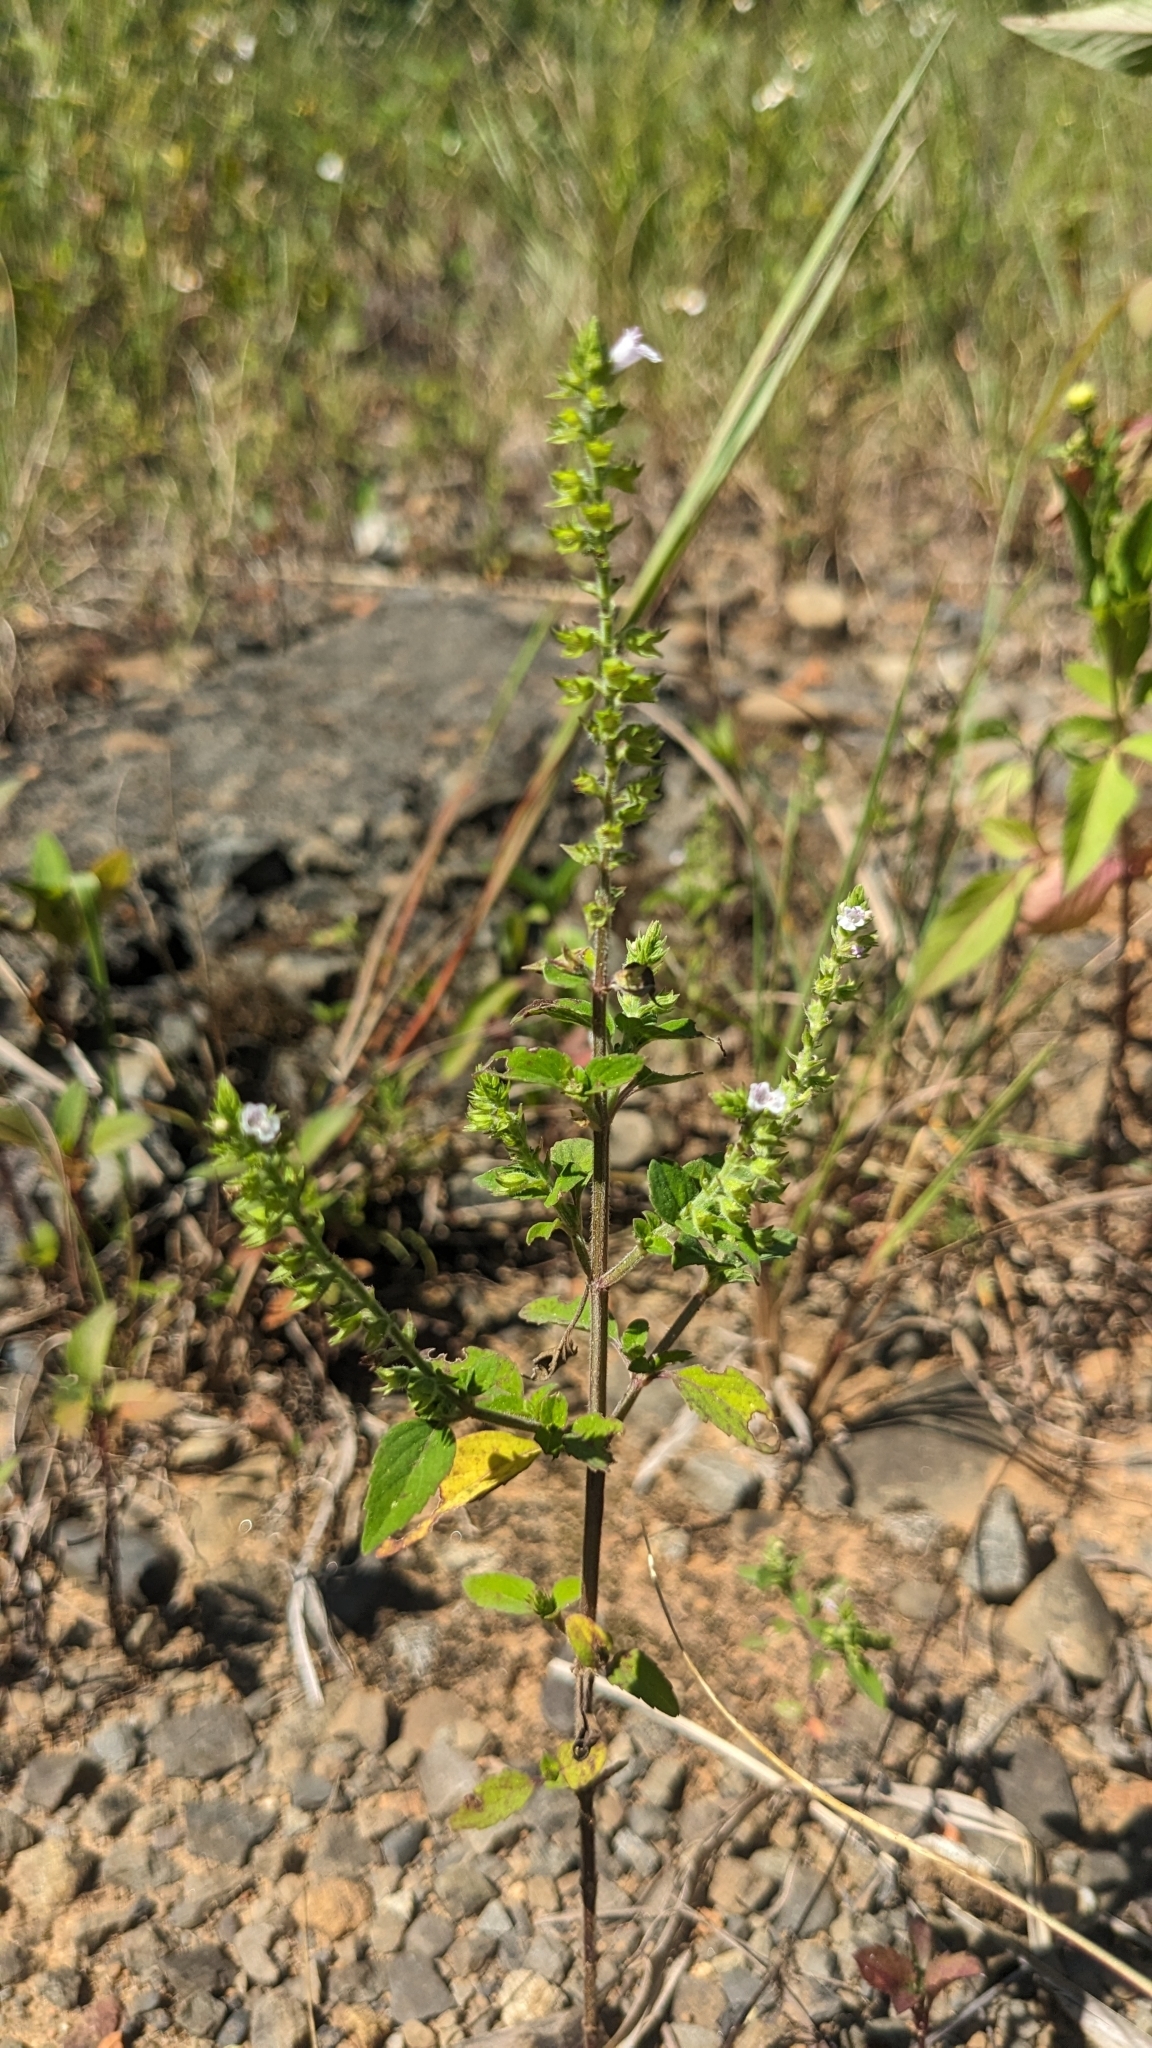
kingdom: Plantae
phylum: Tracheophyta
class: Magnoliopsida
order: Lamiales
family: Lamiaceae
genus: Mosla
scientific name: Mosla scabra
